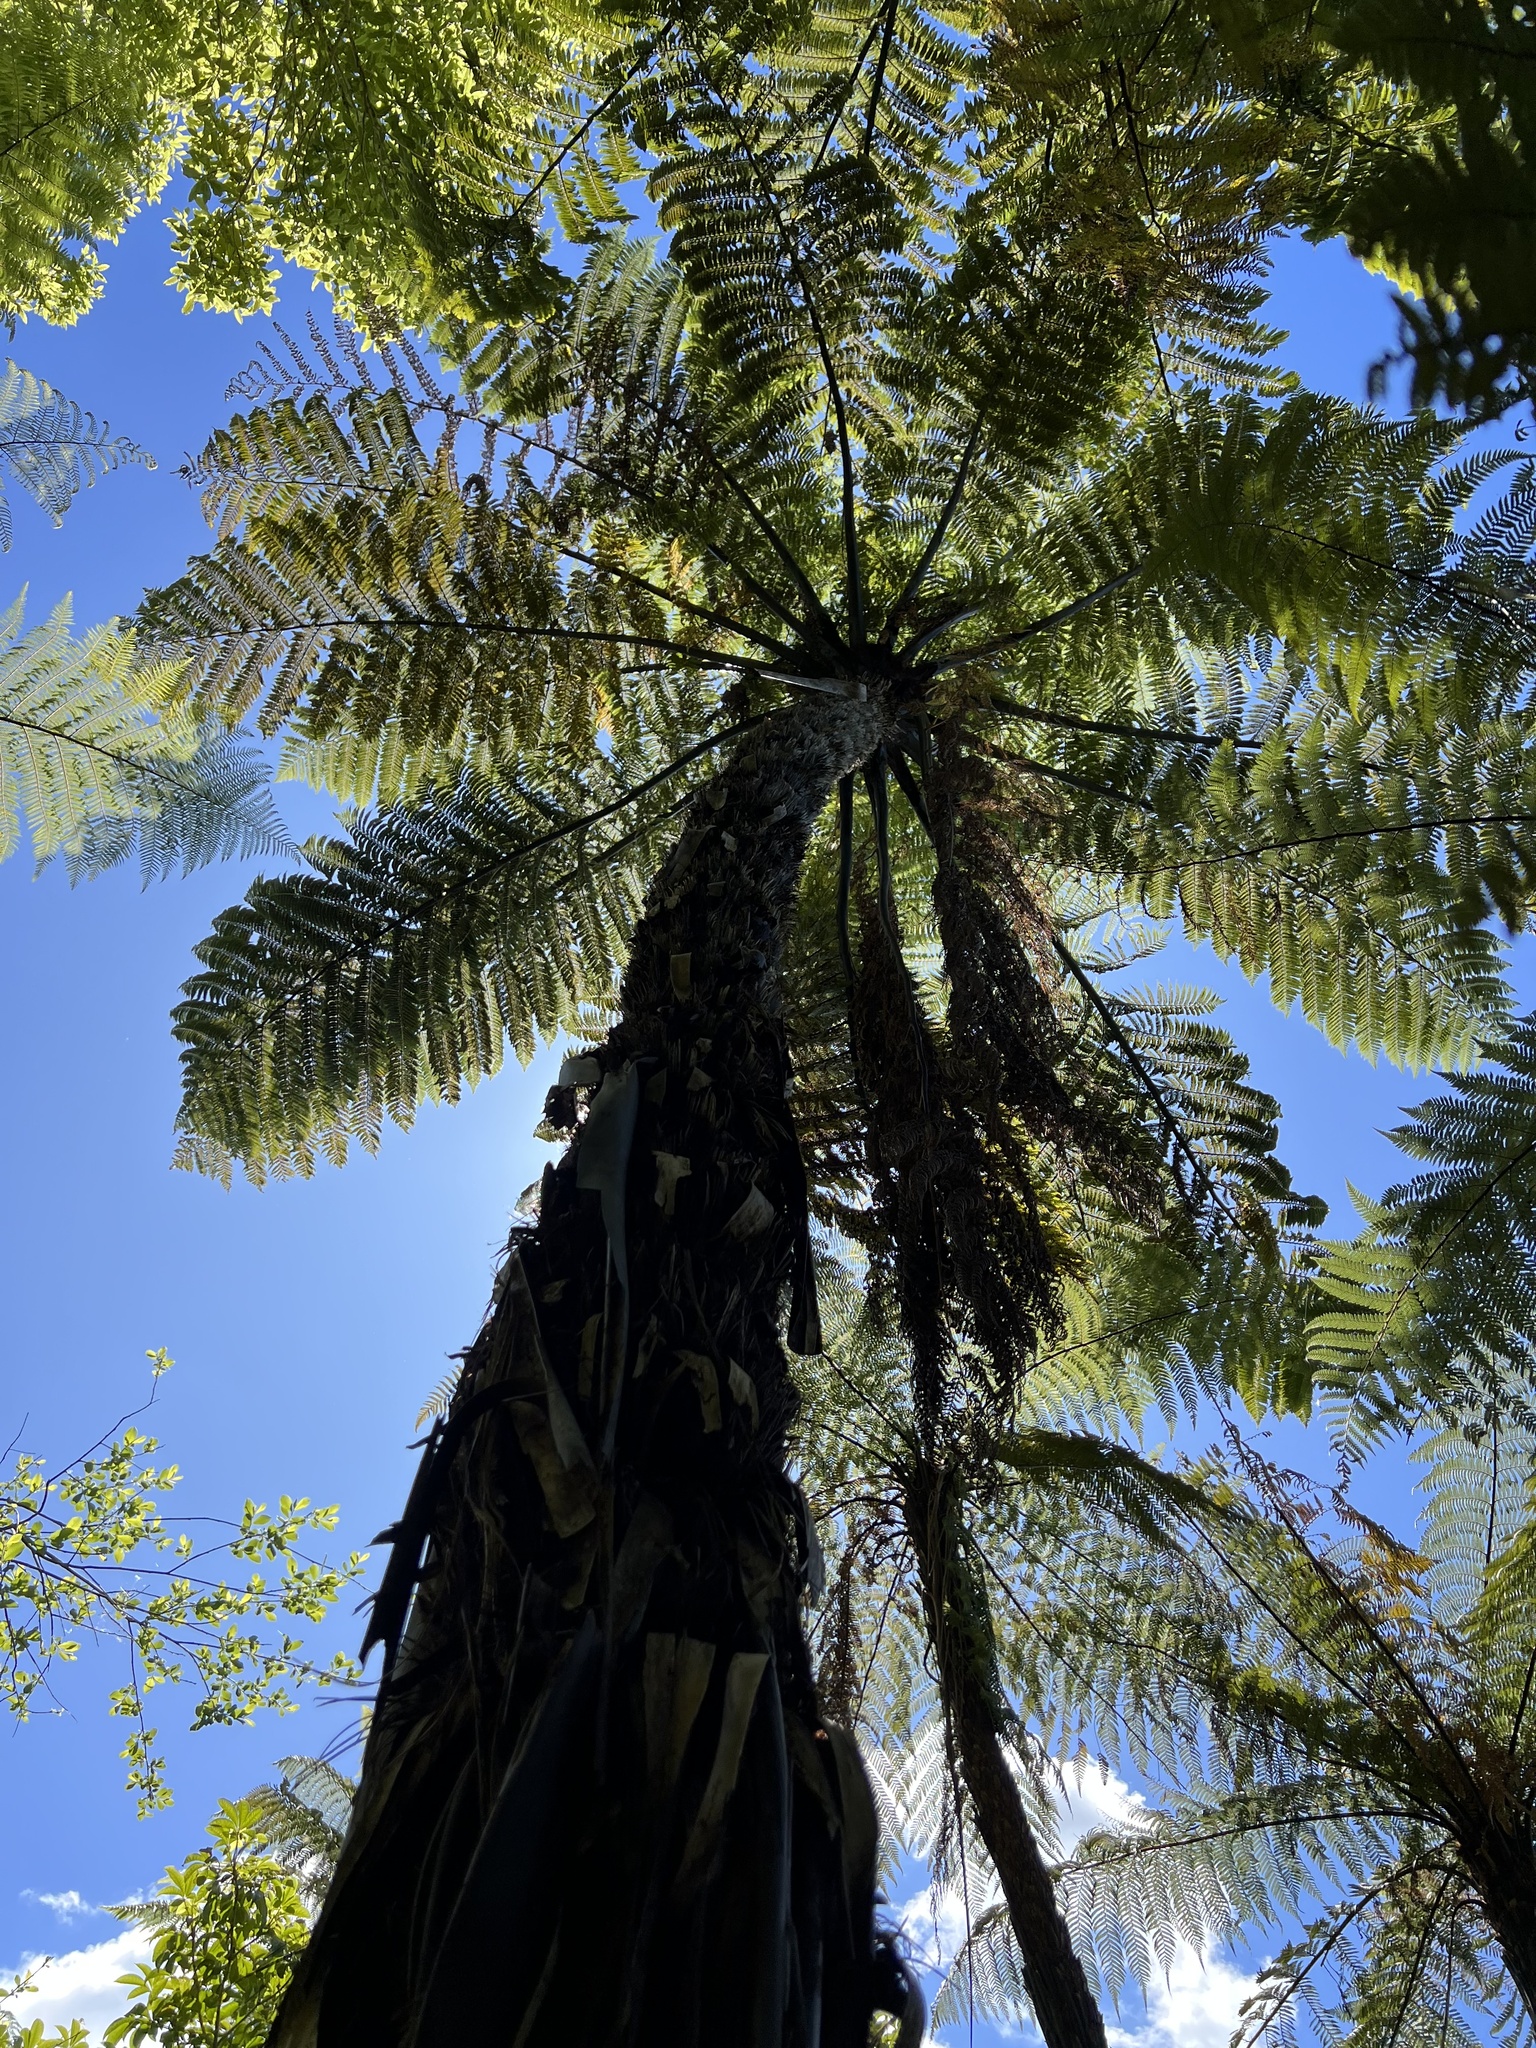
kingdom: Plantae
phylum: Tracheophyta
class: Polypodiopsida
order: Cyatheales
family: Cyatheaceae
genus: Sphaeropteris
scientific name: Sphaeropteris medullaris
